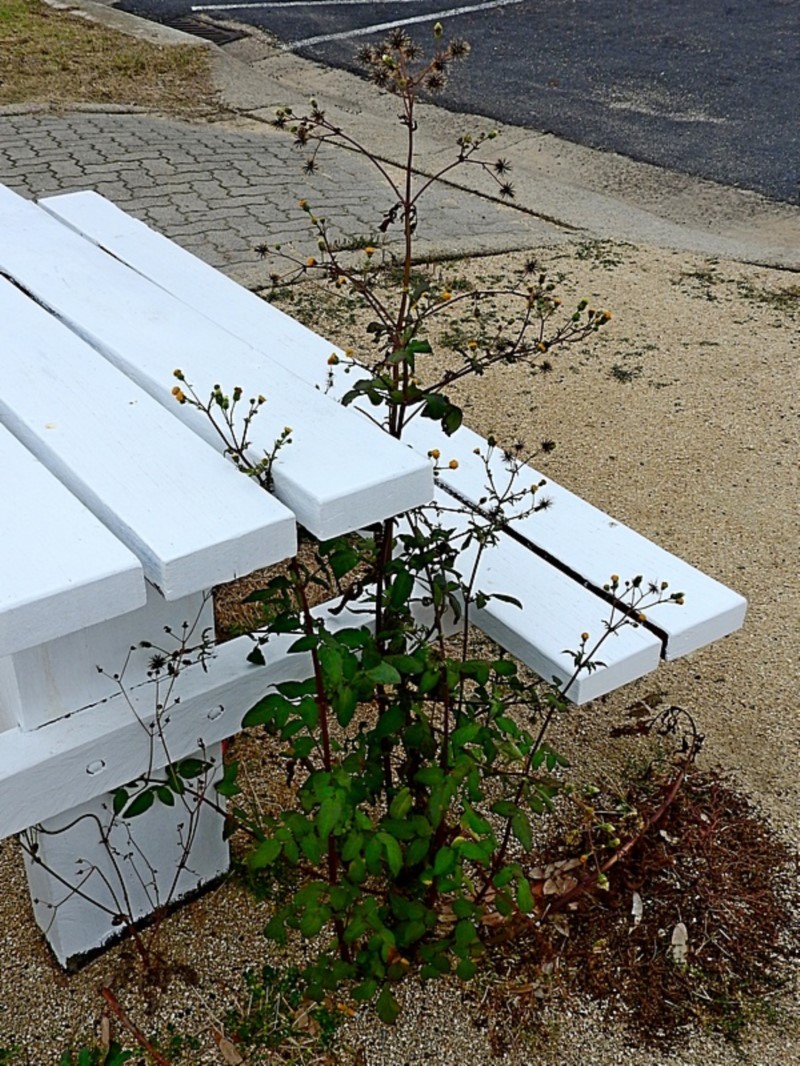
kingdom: Plantae
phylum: Tracheophyta
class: Magnoliopsida
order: Asterales
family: Asteraceae
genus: Bidens
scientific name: Bidens pilosa
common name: Black-jack
